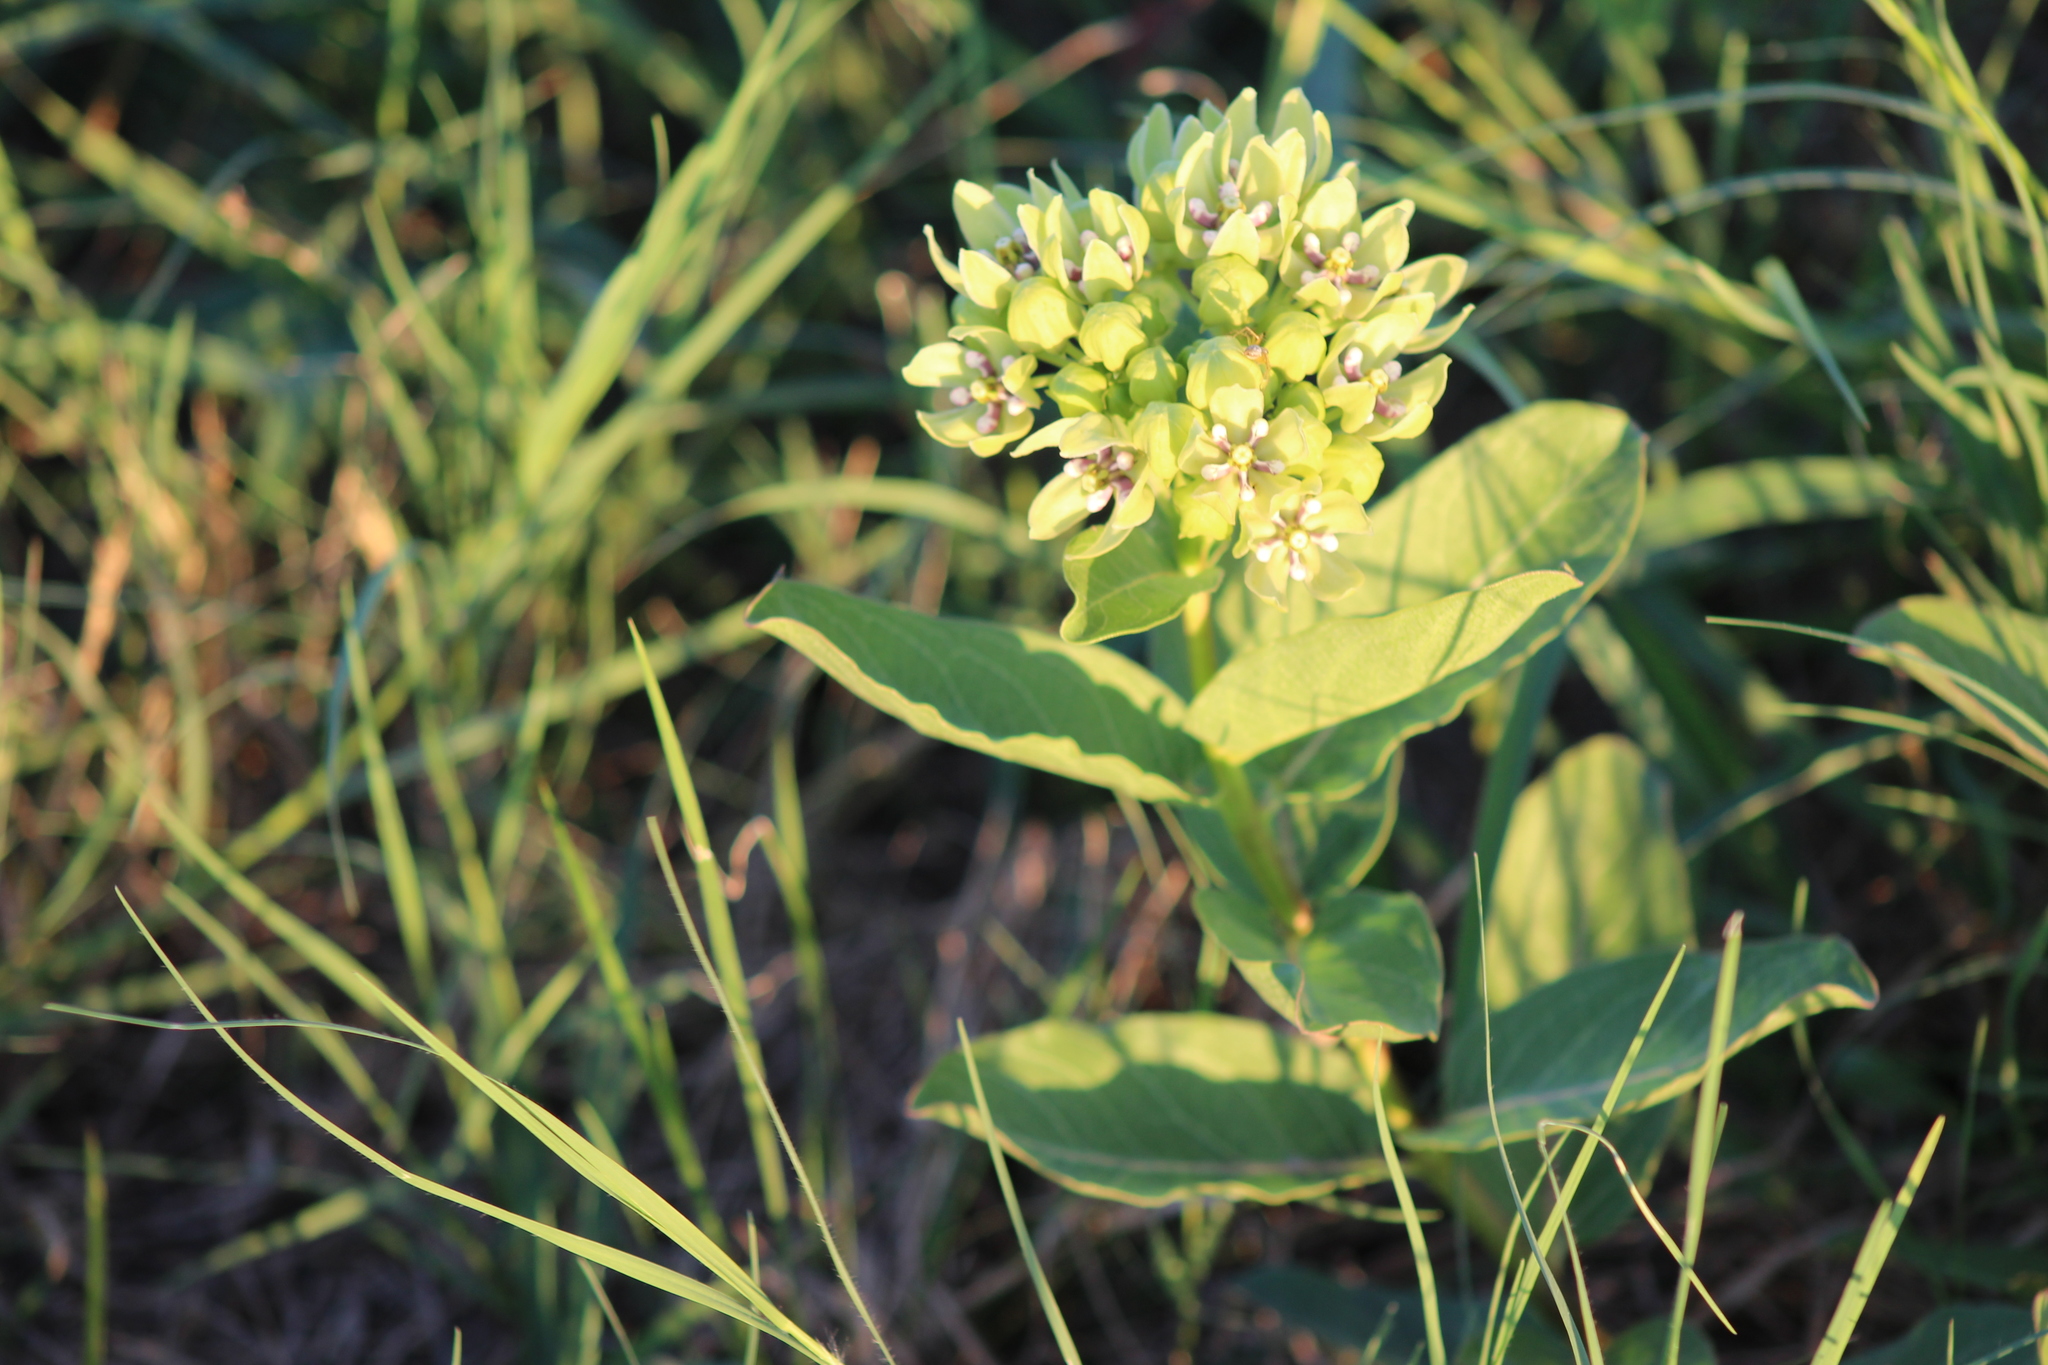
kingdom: Plantae
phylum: Tracheophyta
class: Magnoliopsida
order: Gentianales
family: Apocynaceae
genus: Asclepias
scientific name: Asclepias viridis
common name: Antelope-horns
